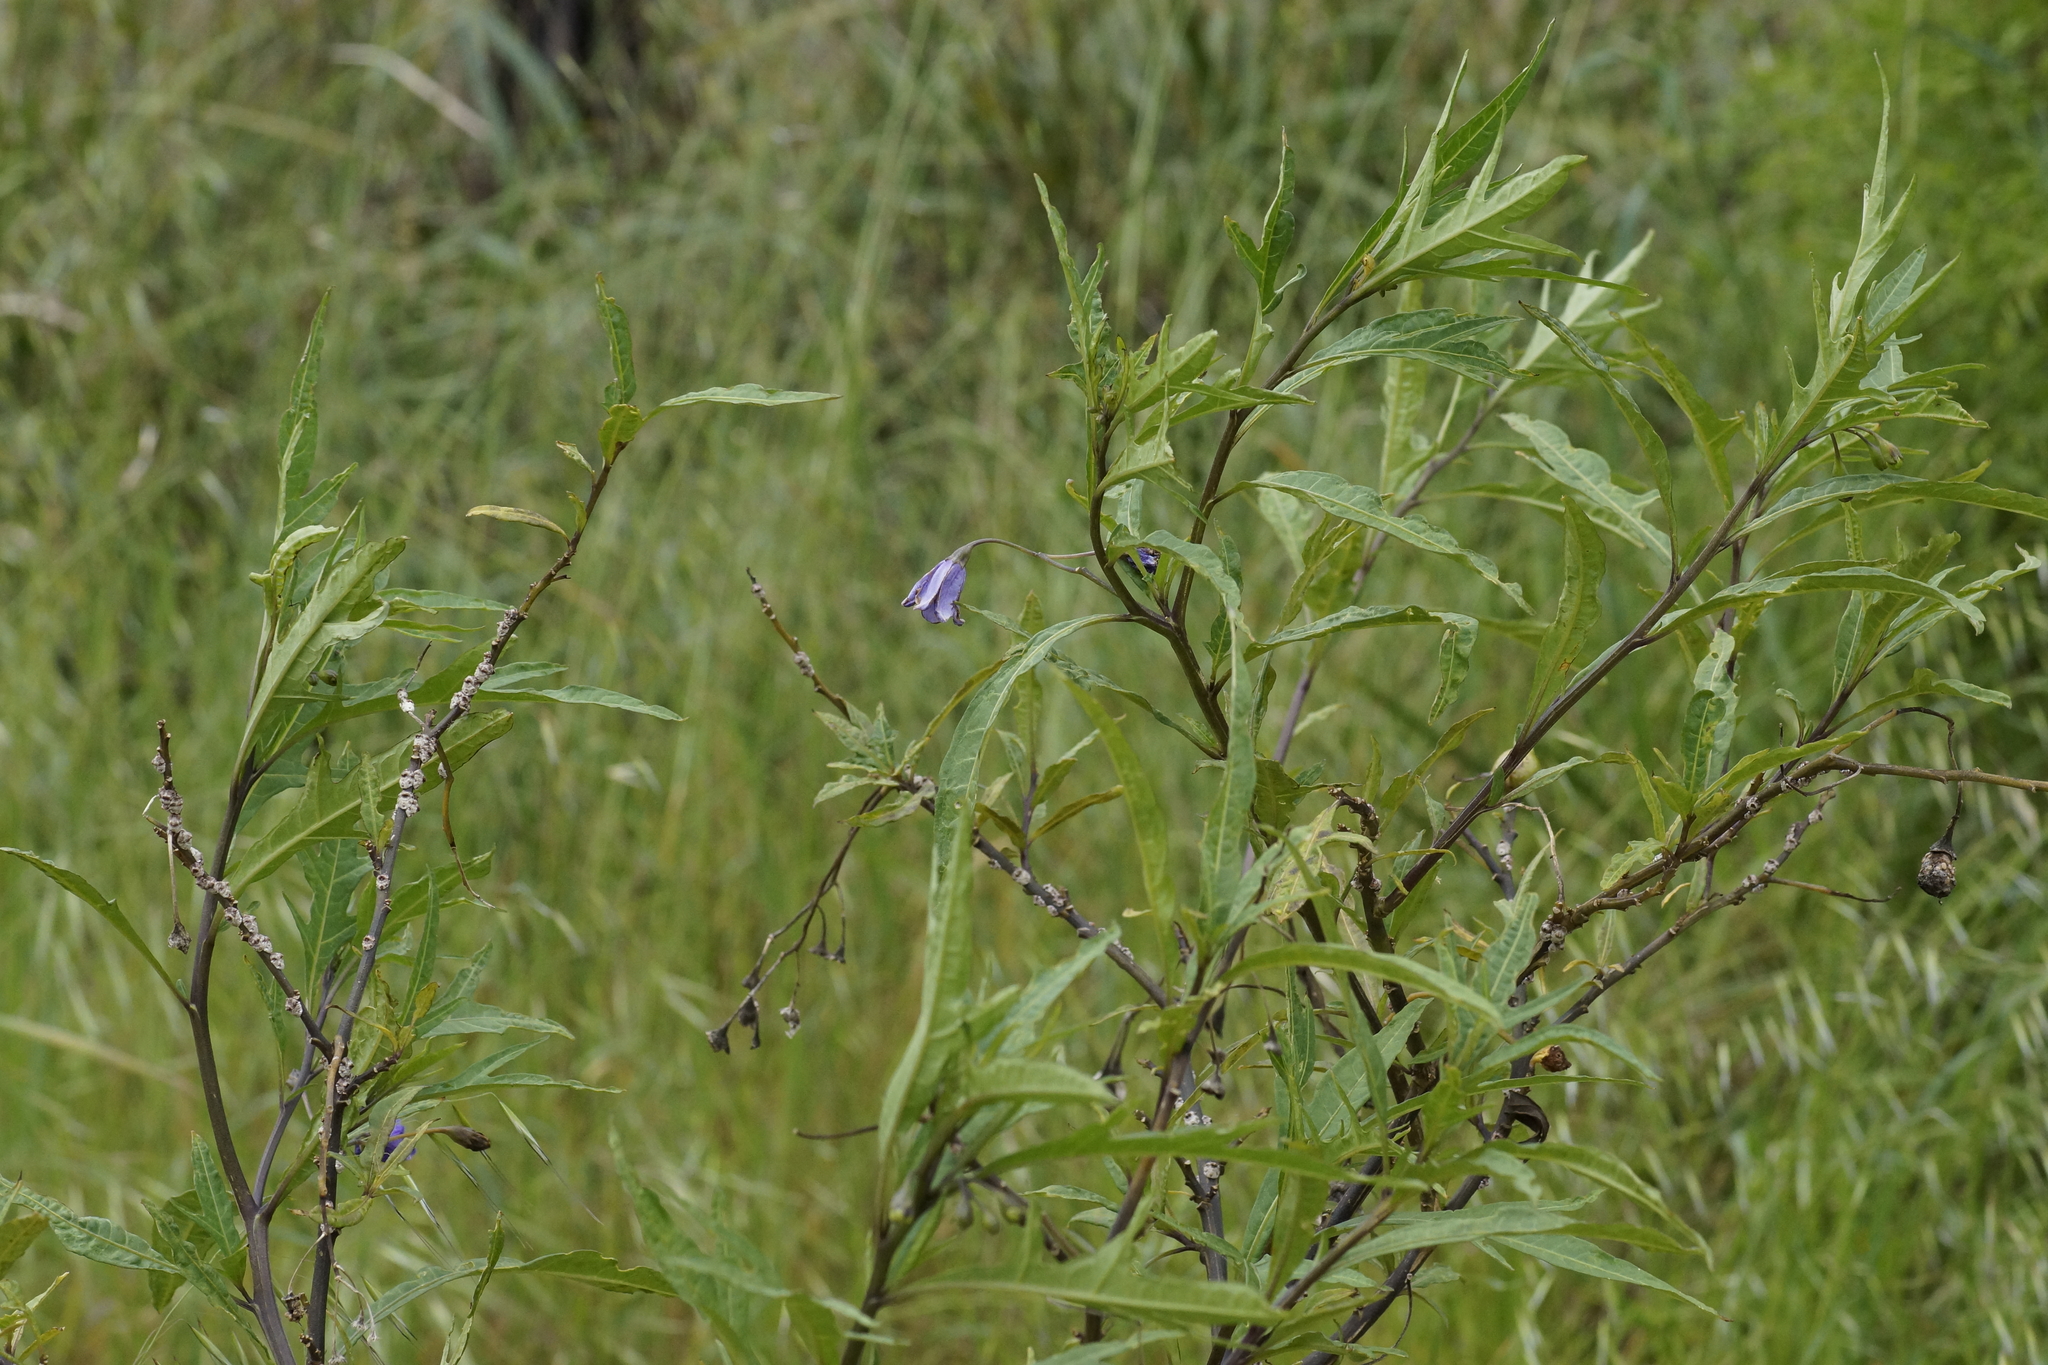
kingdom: Plantae
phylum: Tracheophyta
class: Magnoliopsida
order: Solanales
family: Solanaceae
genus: Solanum
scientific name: Solanum laciniatum
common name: Kangaroo-apple
